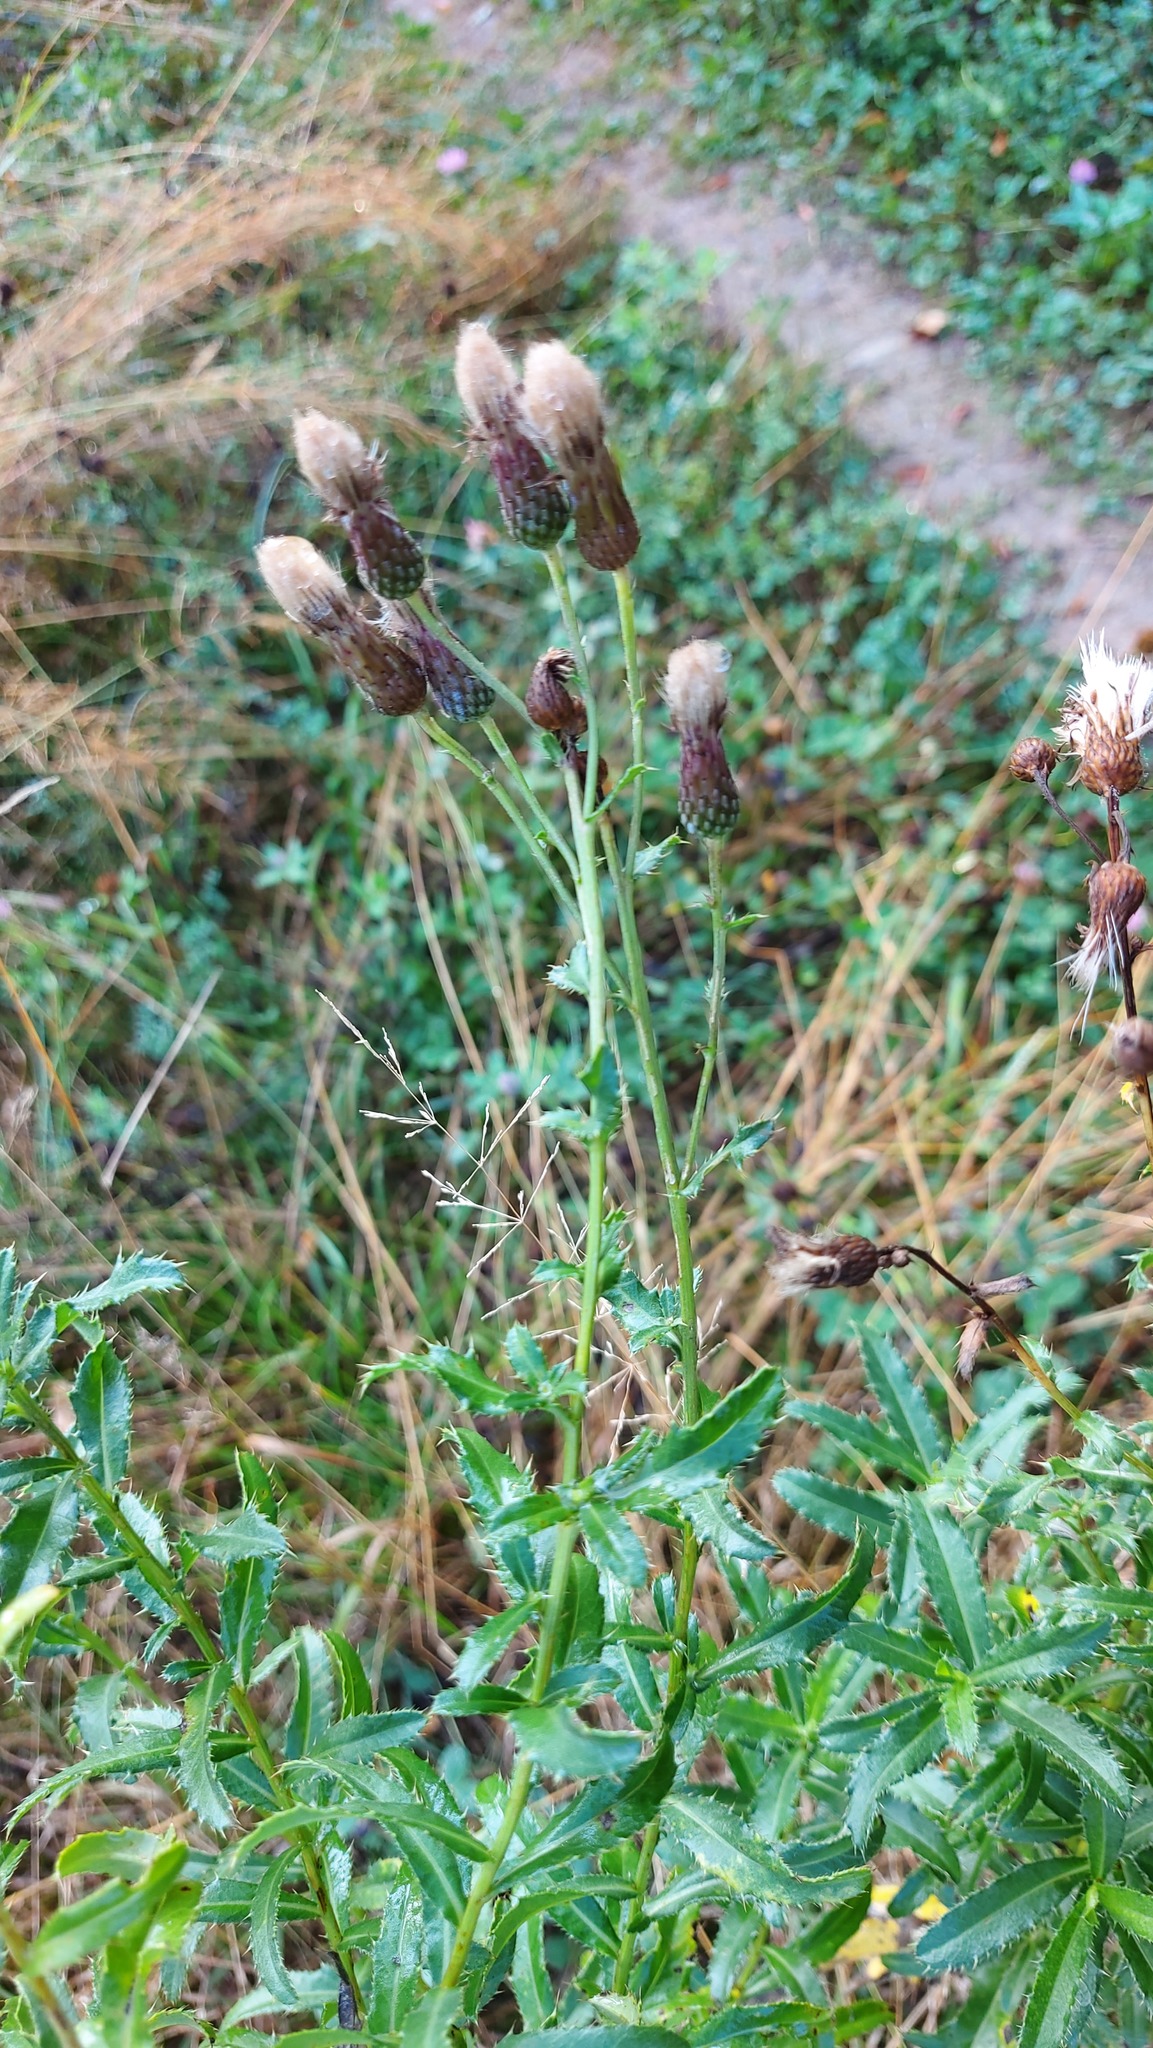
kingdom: Plantae
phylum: Tracheophyta
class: Magnoliopsida
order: Asterales
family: Asteraceae
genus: Cirsium
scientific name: Cirsium arvense
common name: Creeping thistle
